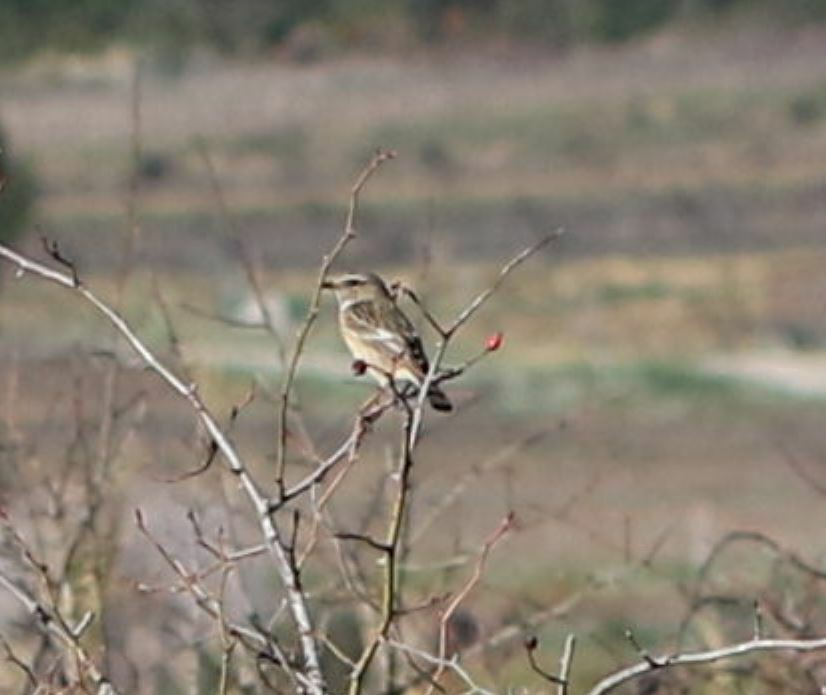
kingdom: Animalia
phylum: Chordata
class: Aves
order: Passeriformes
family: Muscicapidae
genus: Saxicola
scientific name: Saxicola rubicola
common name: European stonechat
